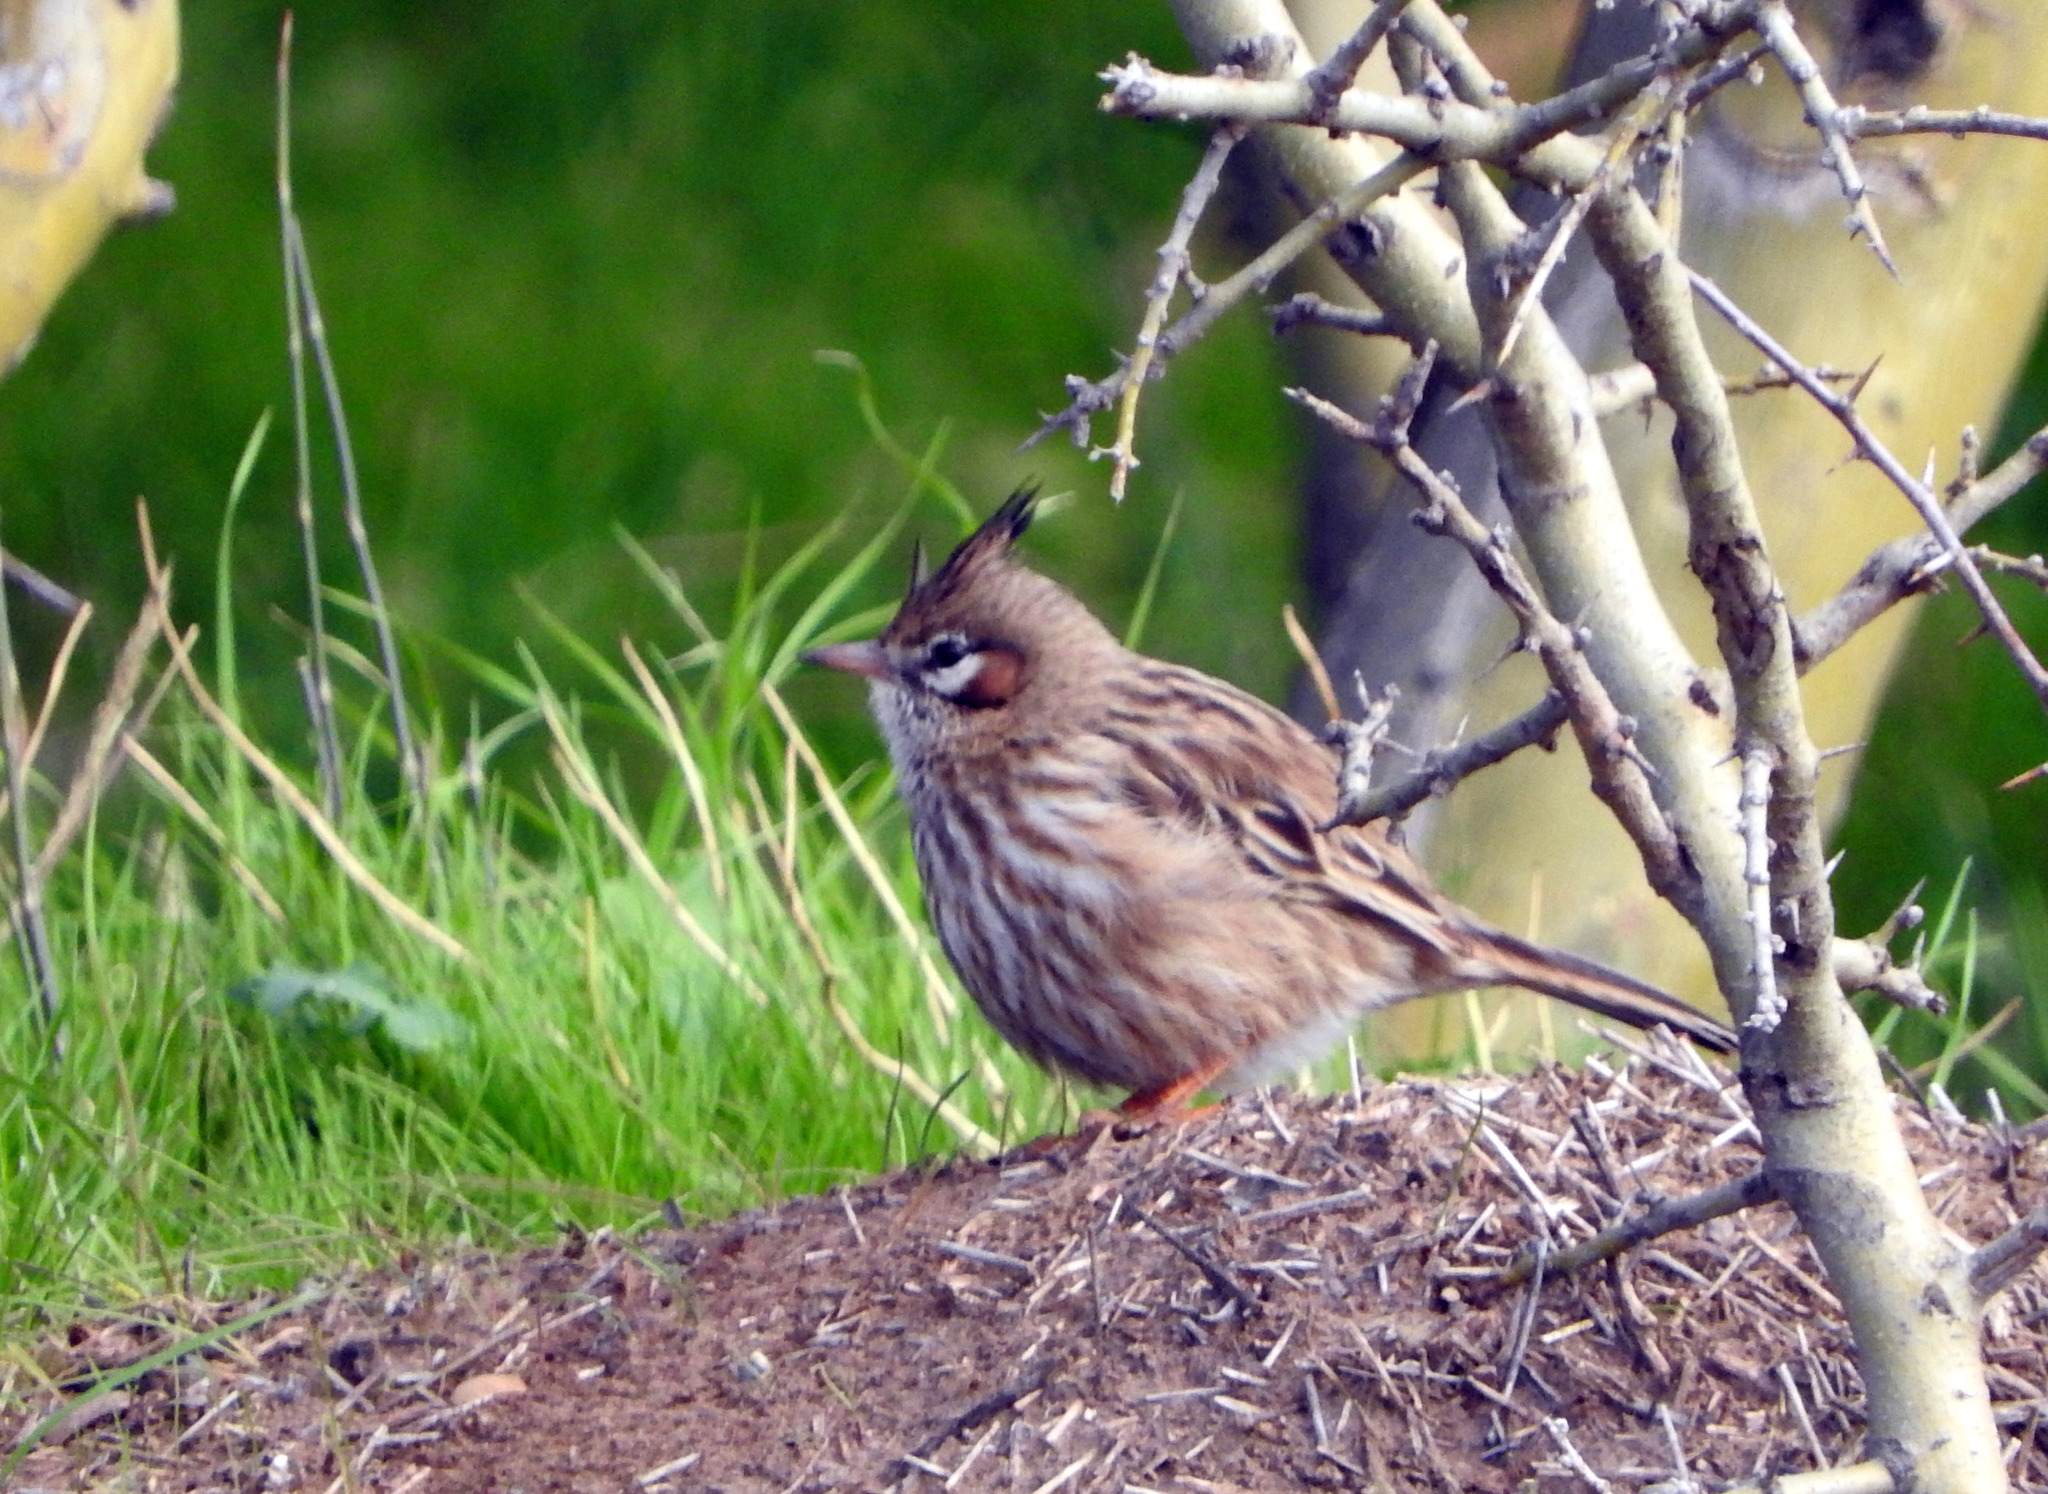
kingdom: Animalia
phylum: Chordata
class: Aves
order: Passeriformes
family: Furnariidae
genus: Coryphistera
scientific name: Coryphistera alaudina
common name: Lark-like brushrunner
